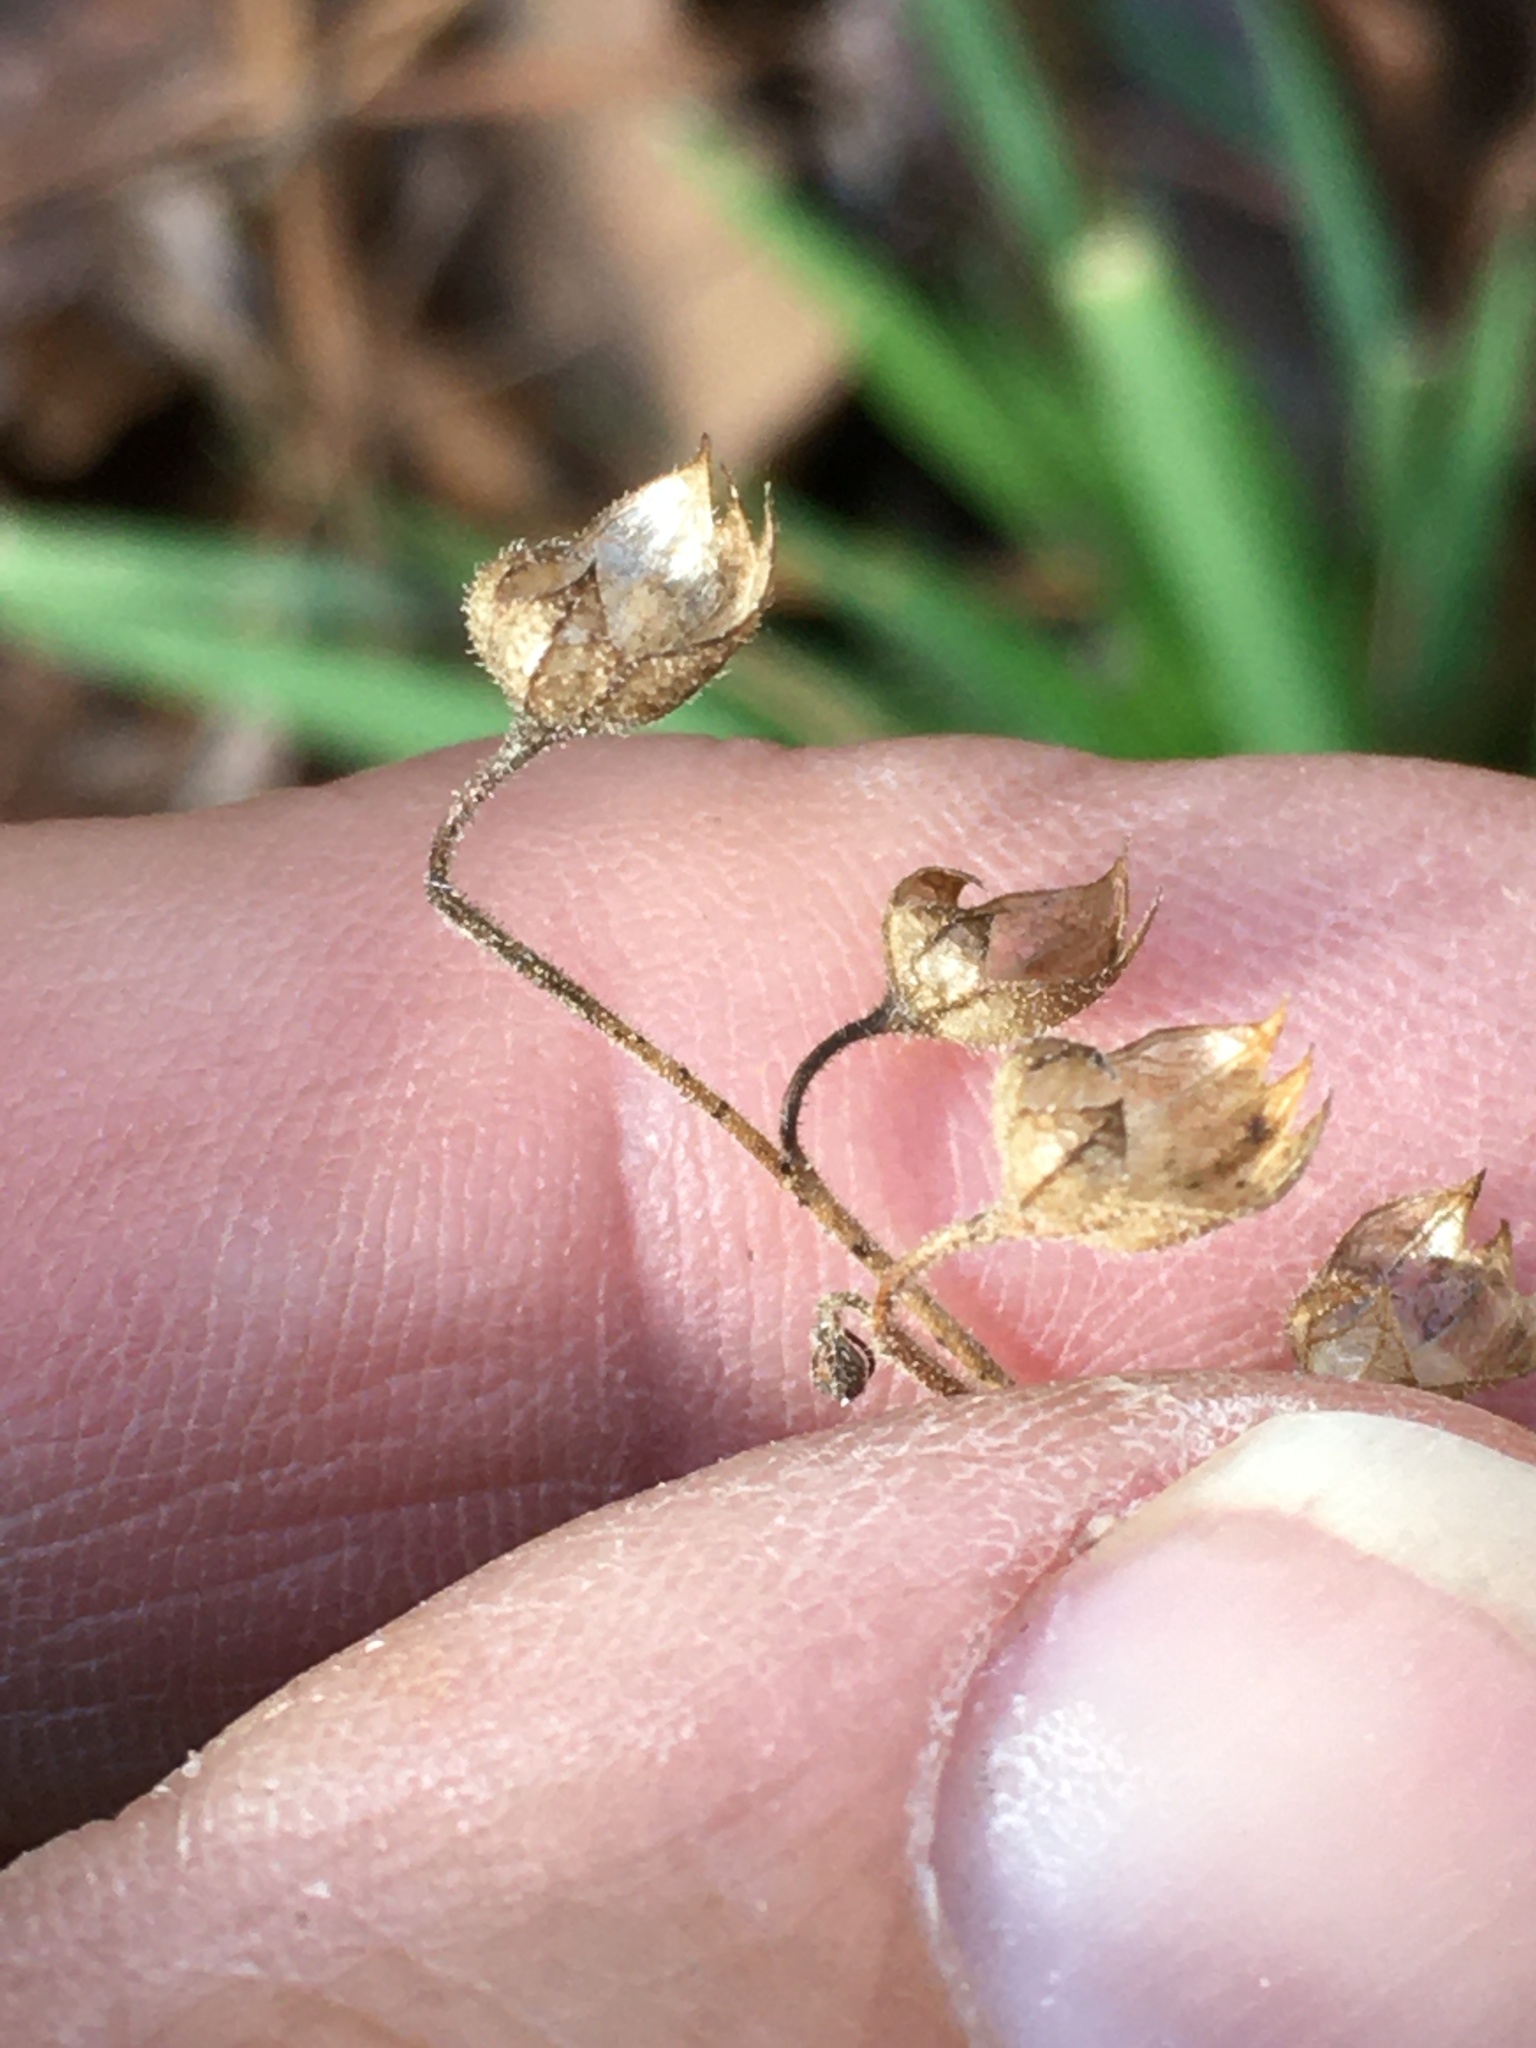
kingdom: Plantae
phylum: Tracheophyta
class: Magnoliopsida
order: Lamiales
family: Lamiaceae
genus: Trichostema
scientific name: Trichostema dichotomum
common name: Bastard pennyroyal
